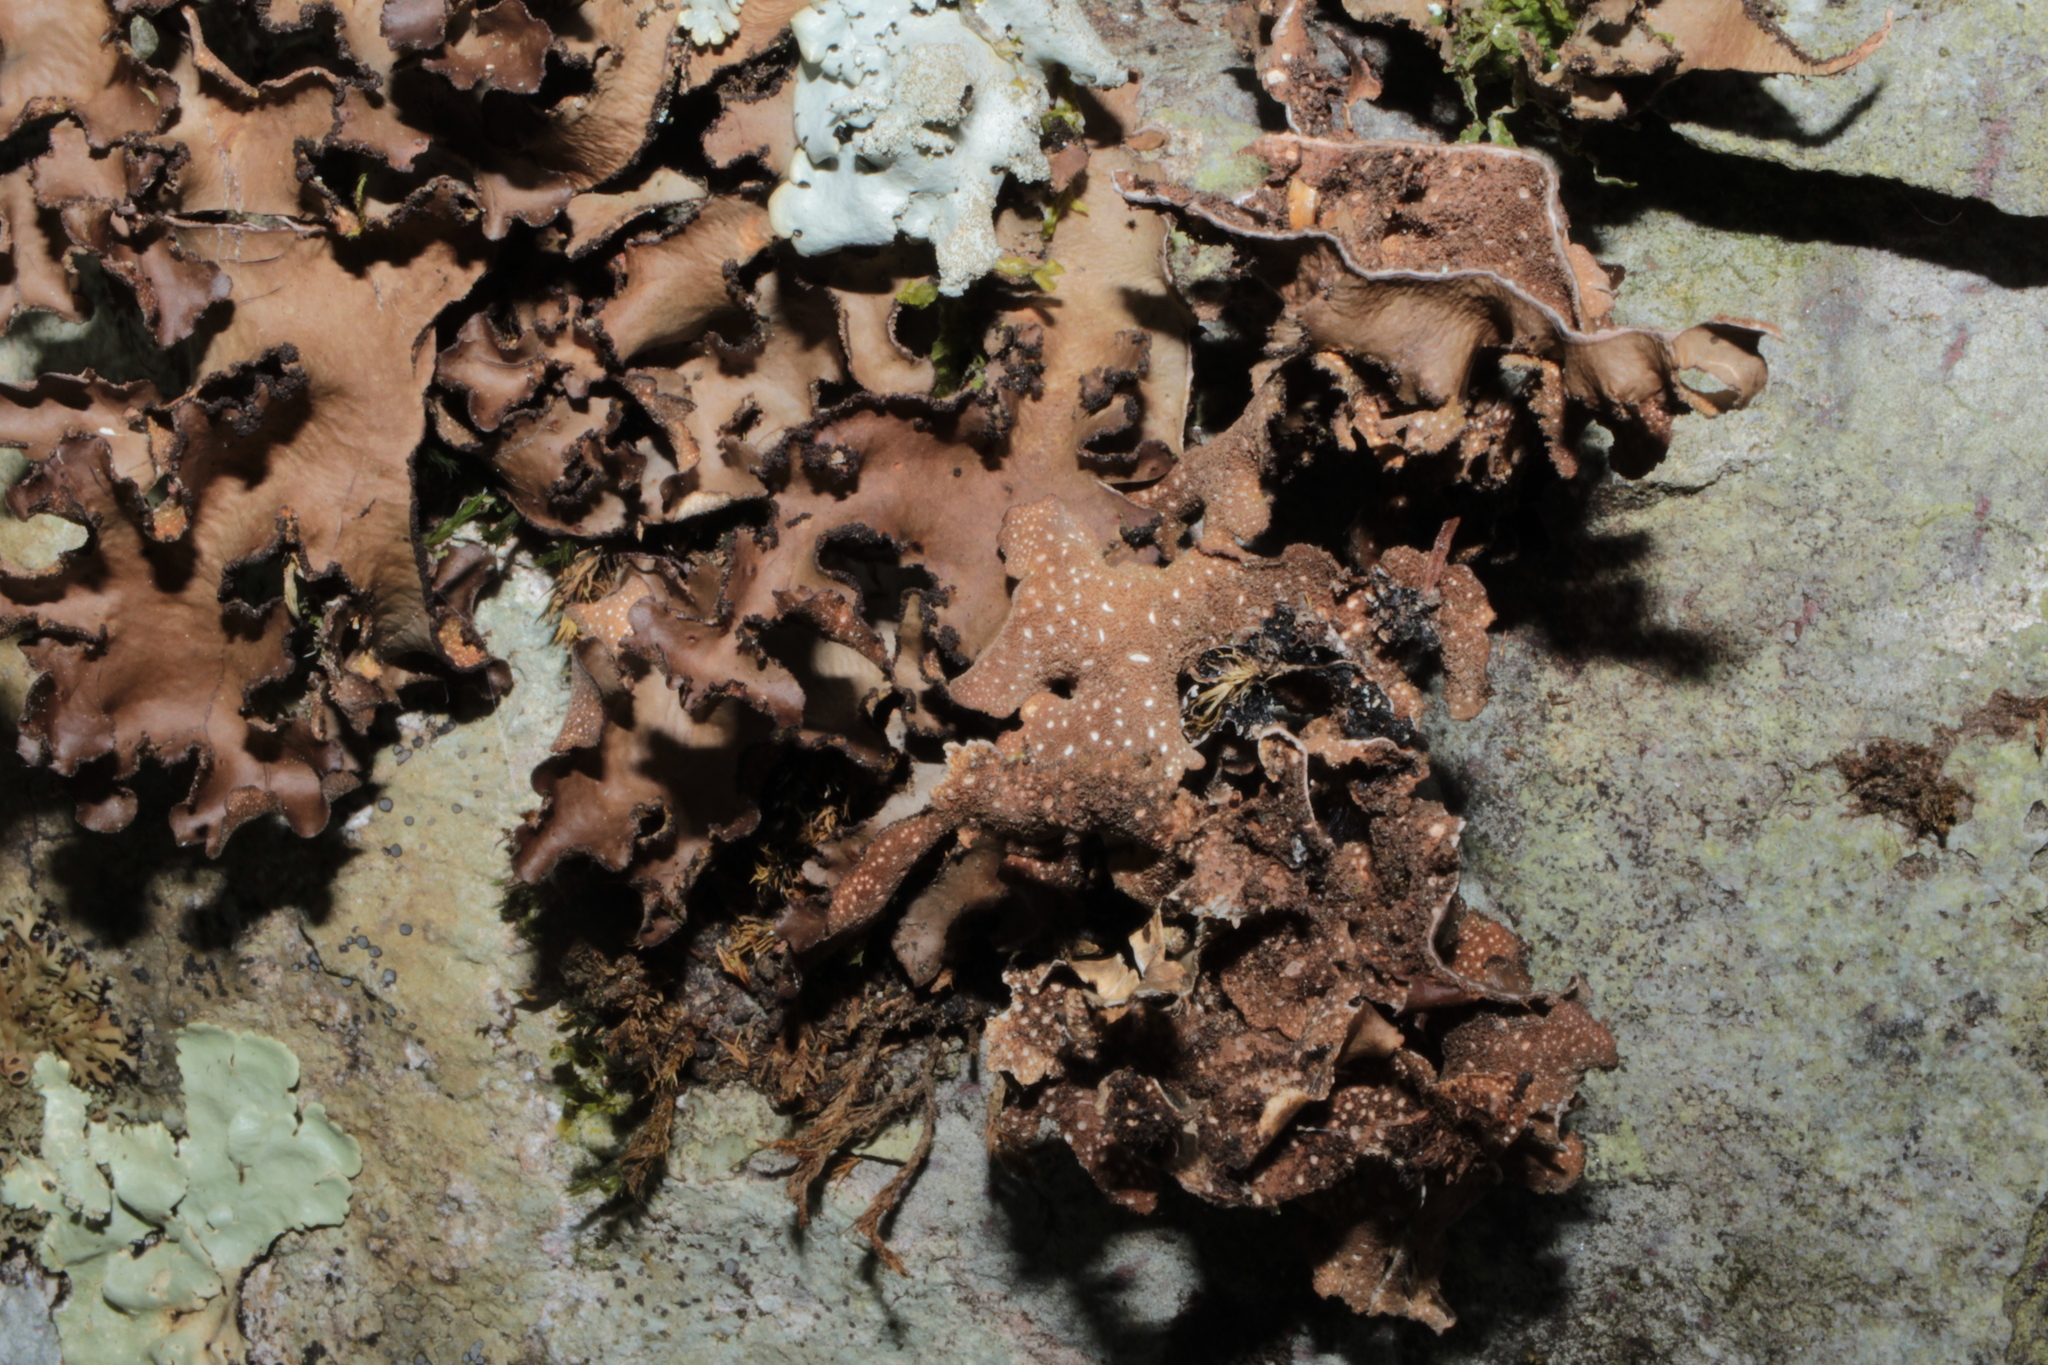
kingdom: Fungi
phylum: Ascomycota
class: Lecanoromycetes
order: Peltigerales
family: Lobariaceae
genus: Sticta
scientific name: Sticta beauvoisii
